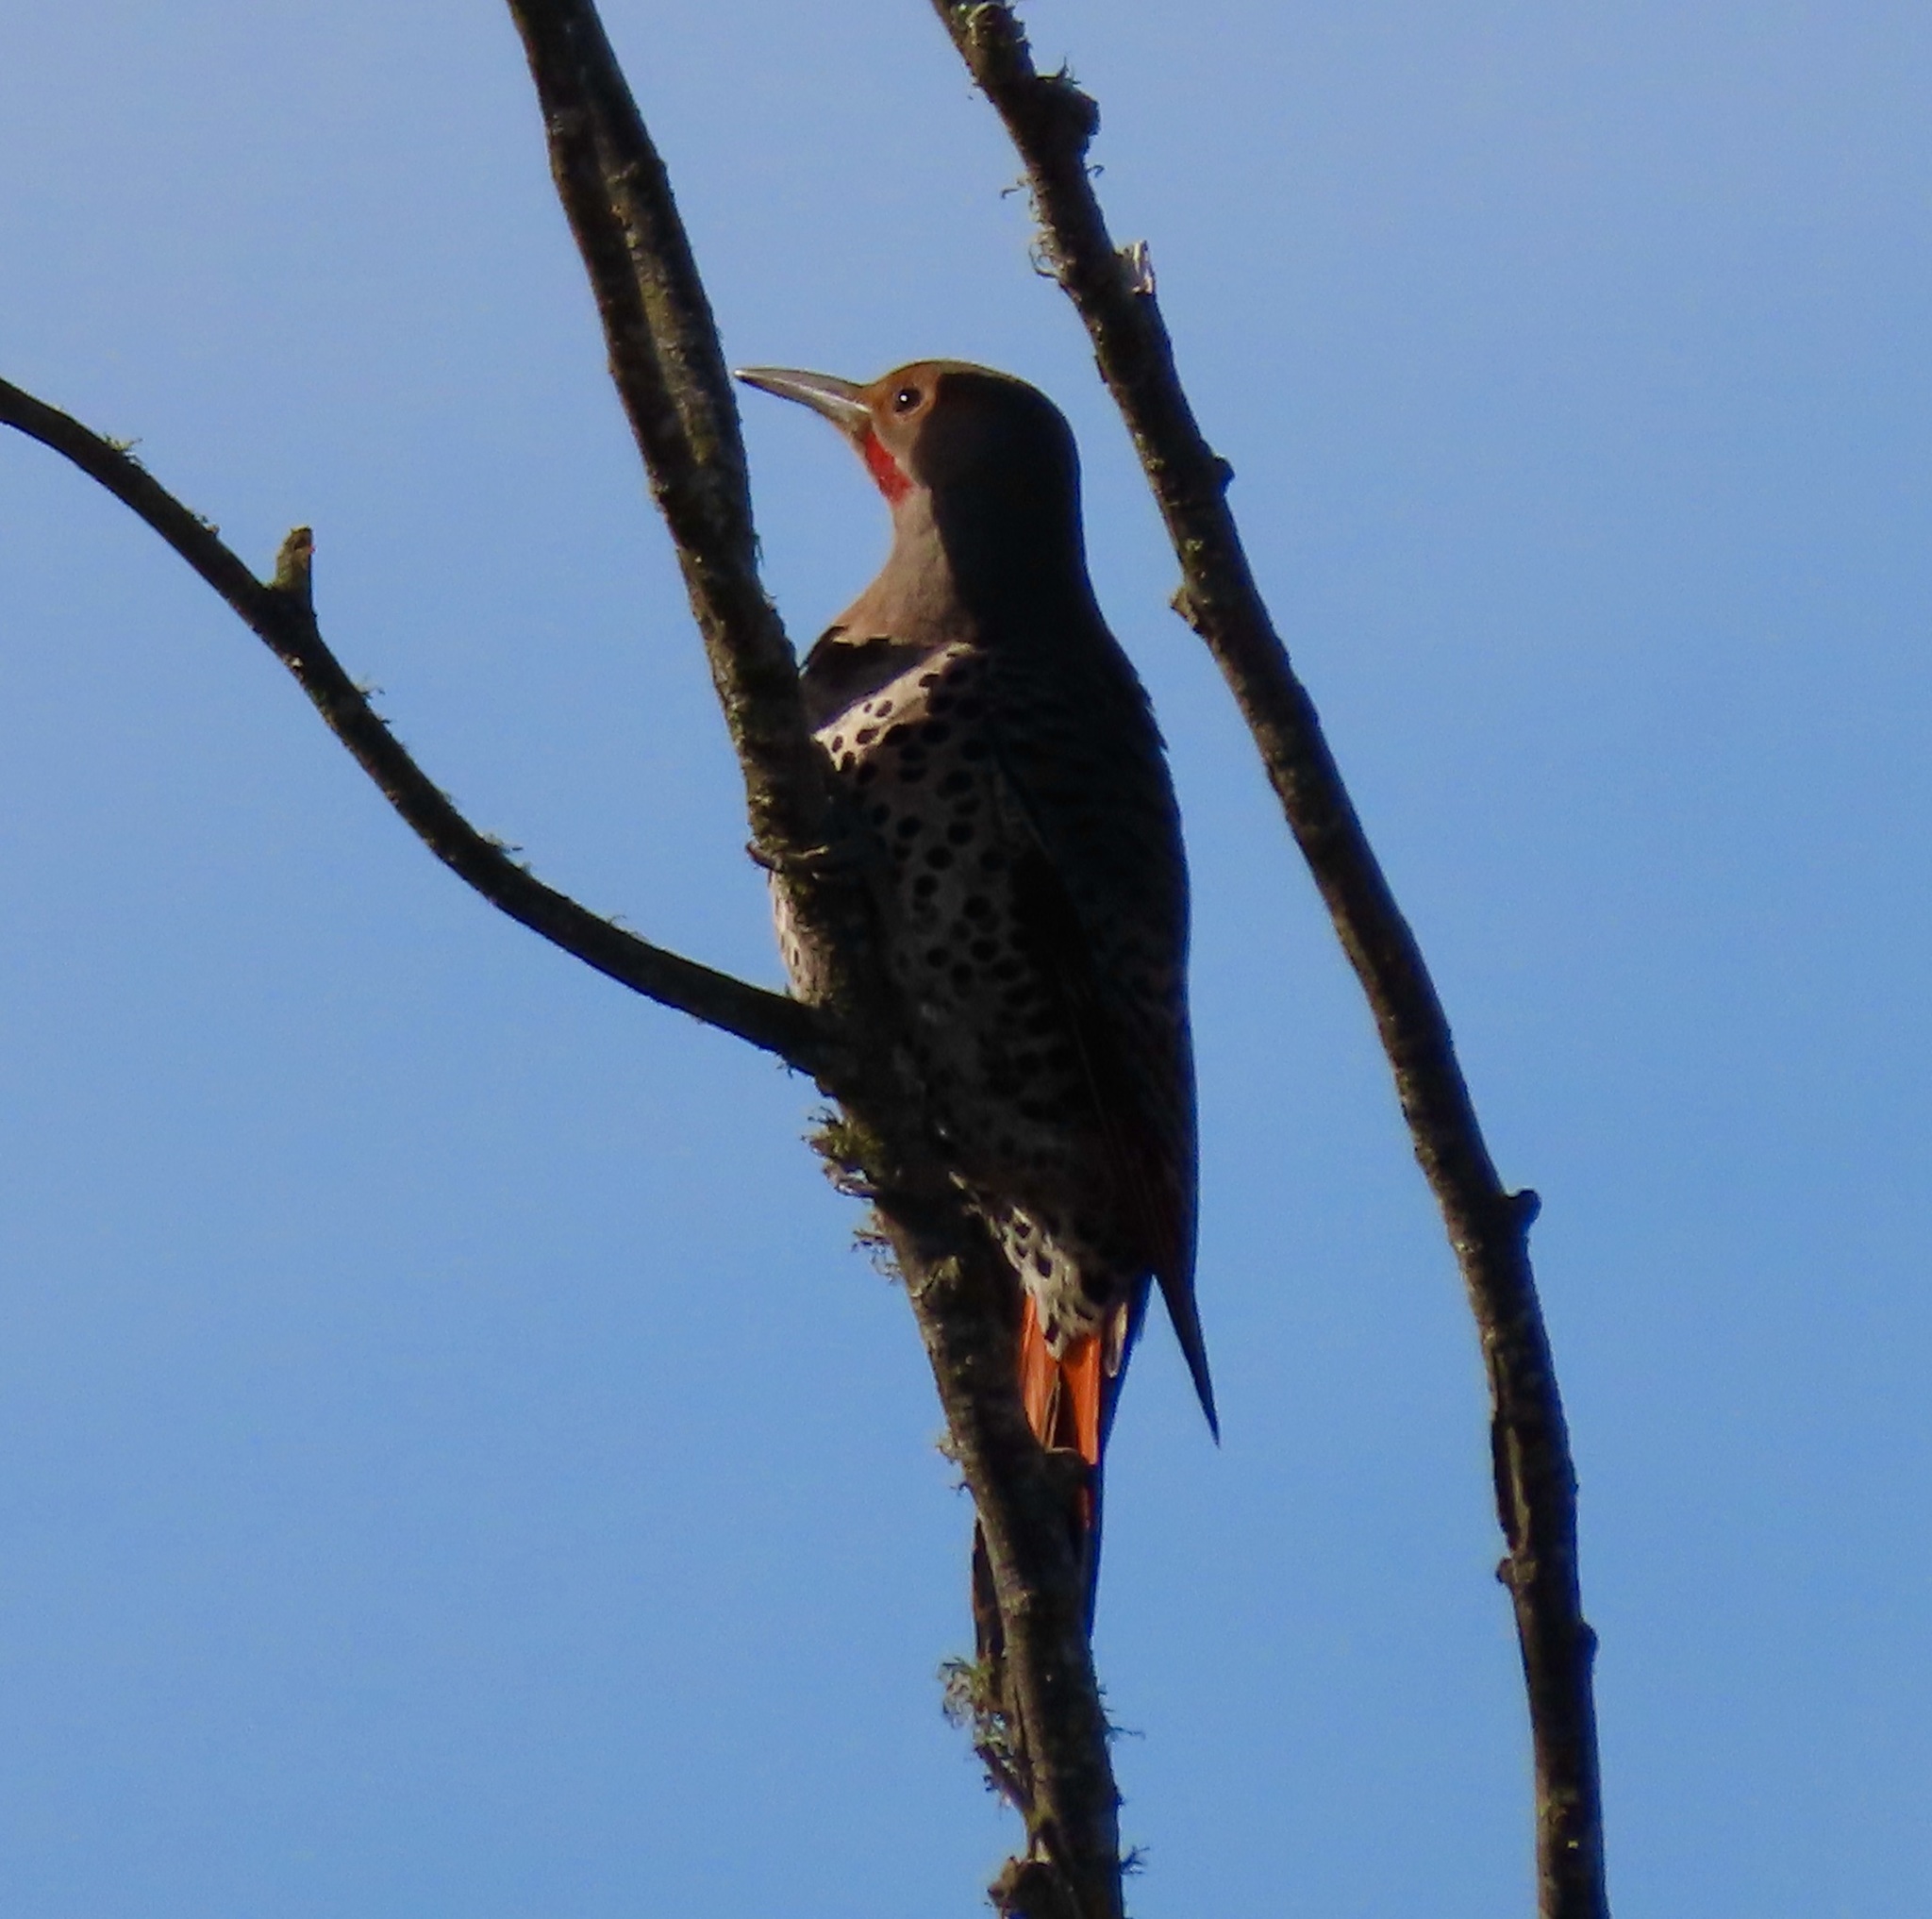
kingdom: Animalia
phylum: Chordata
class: Aves
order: Piciformes
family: Picidae
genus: Colaptes
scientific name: Colaptes auratus
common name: Northern flicker
